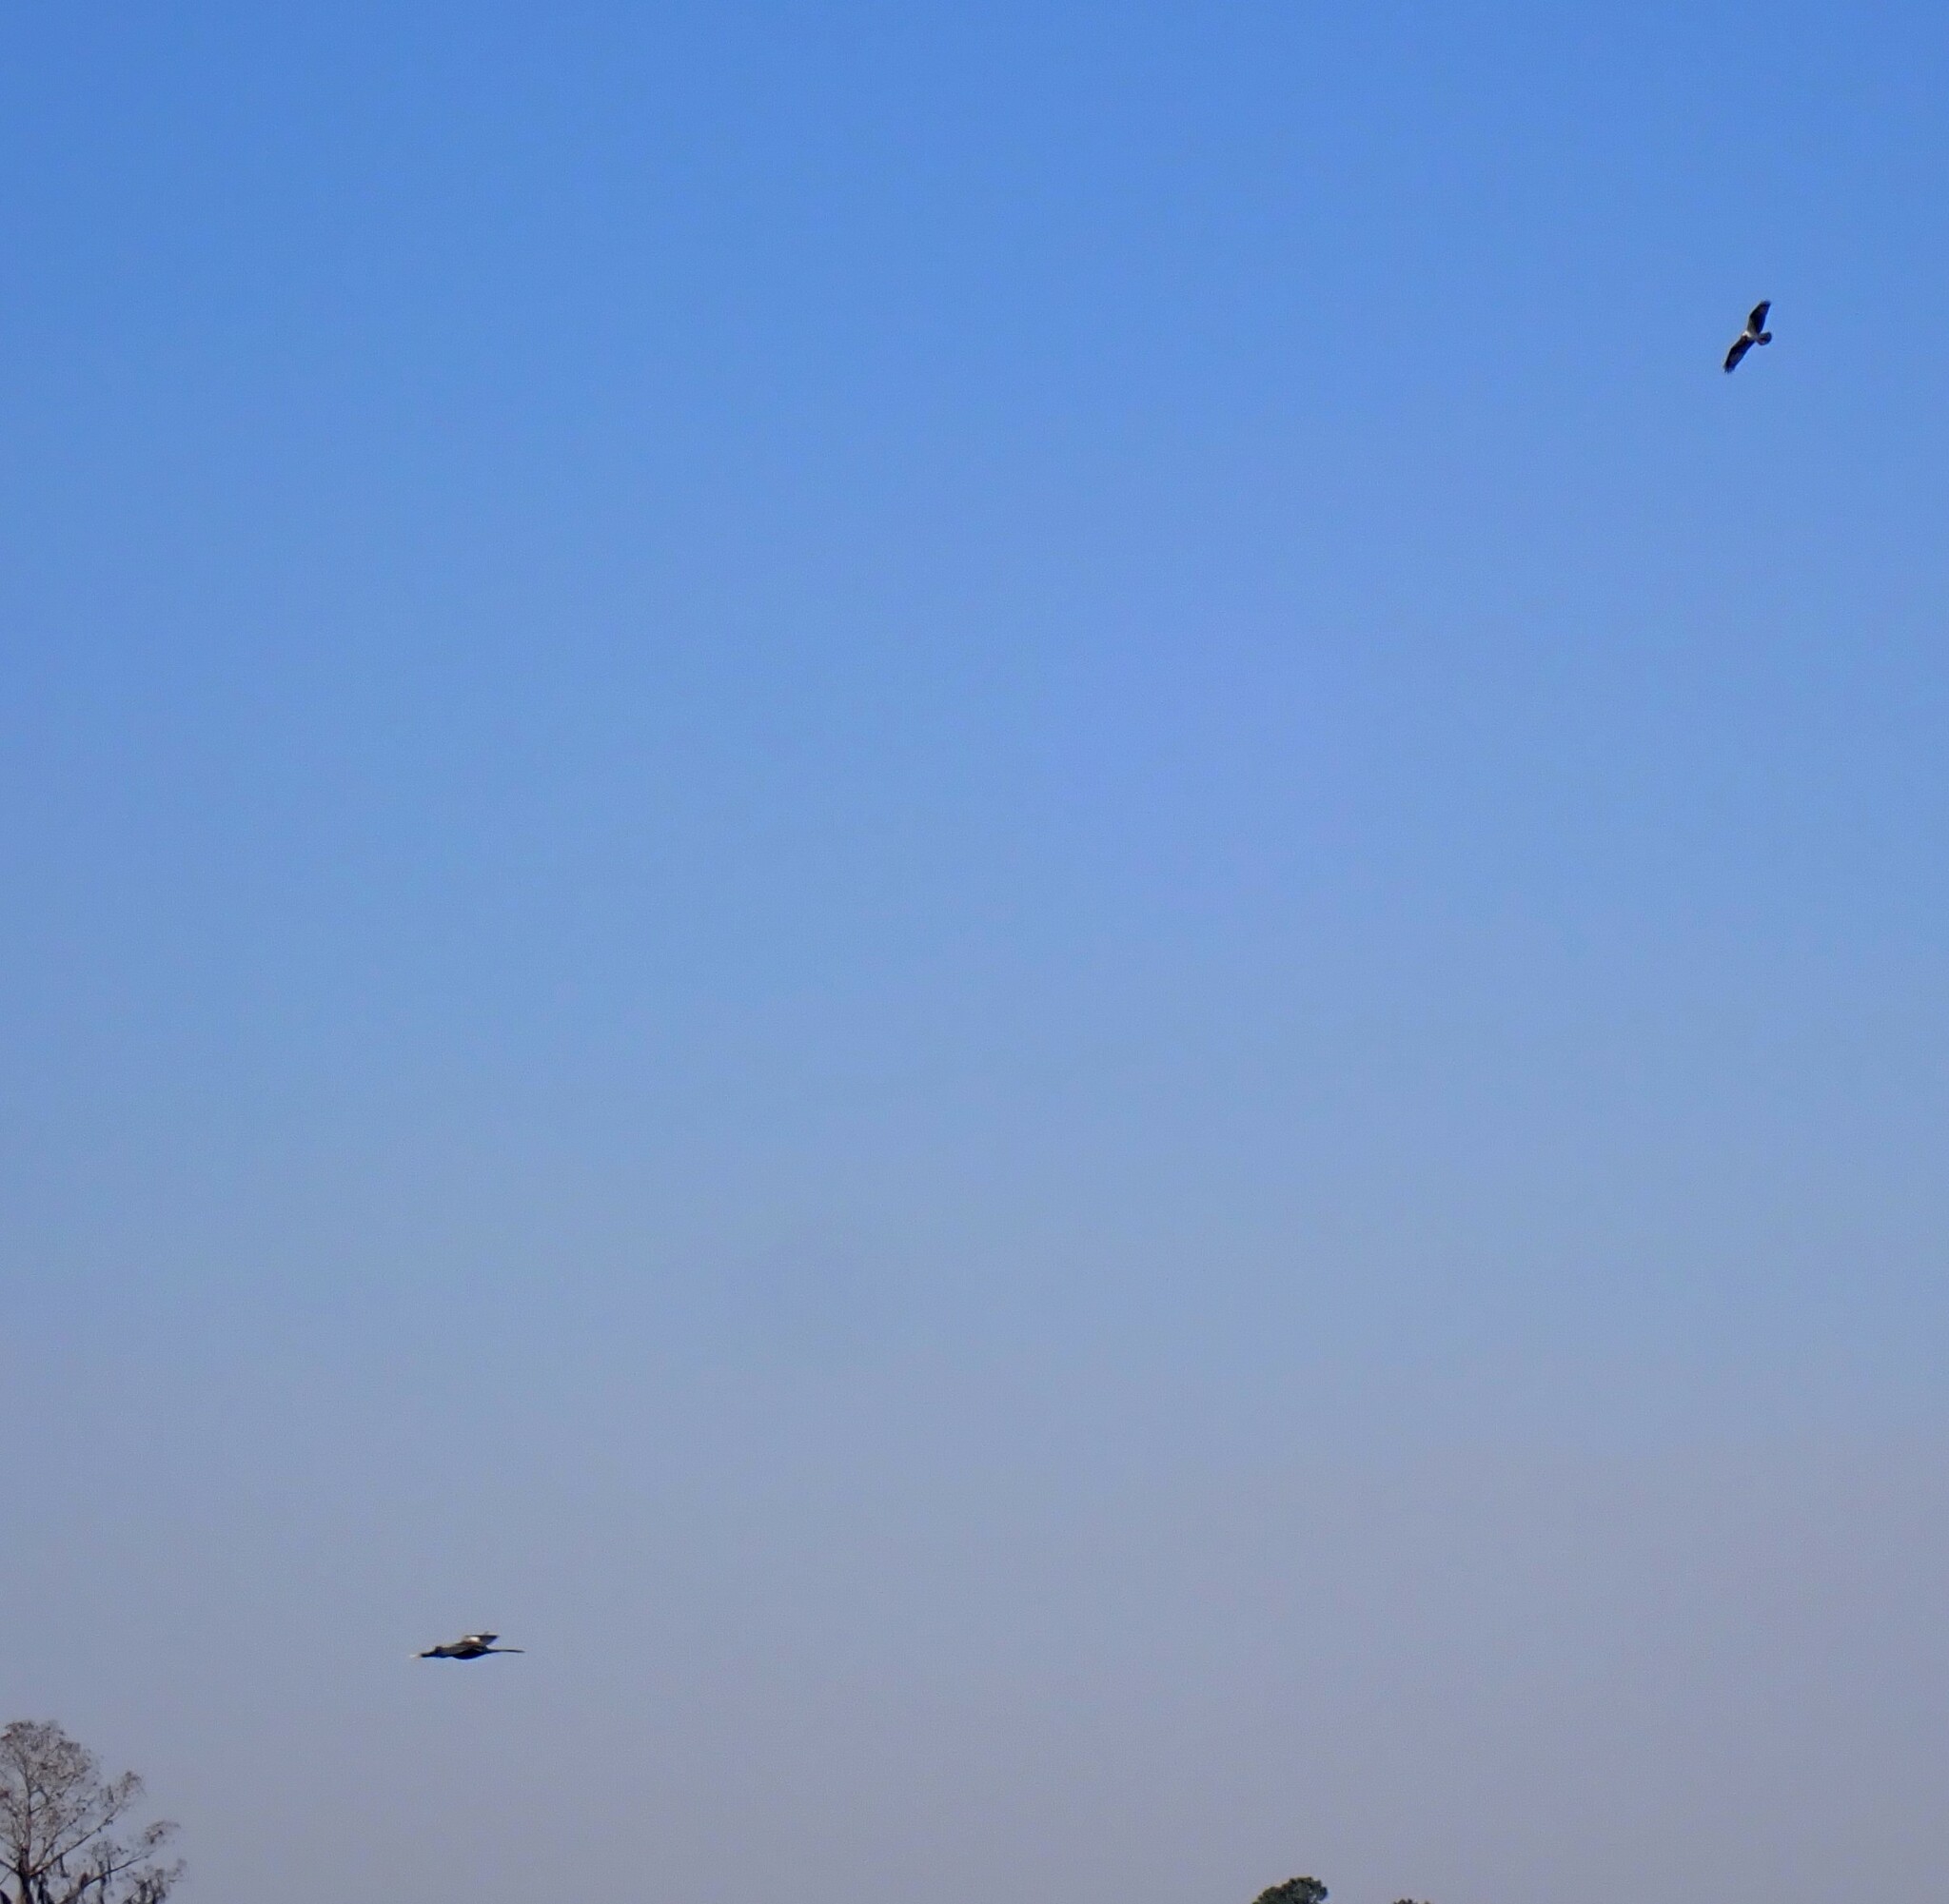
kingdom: Animalia
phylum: Chordata
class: Aves
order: Accipitriformes
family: Pandionidae
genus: Pandion
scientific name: Pandion haliaetus
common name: Osprey
